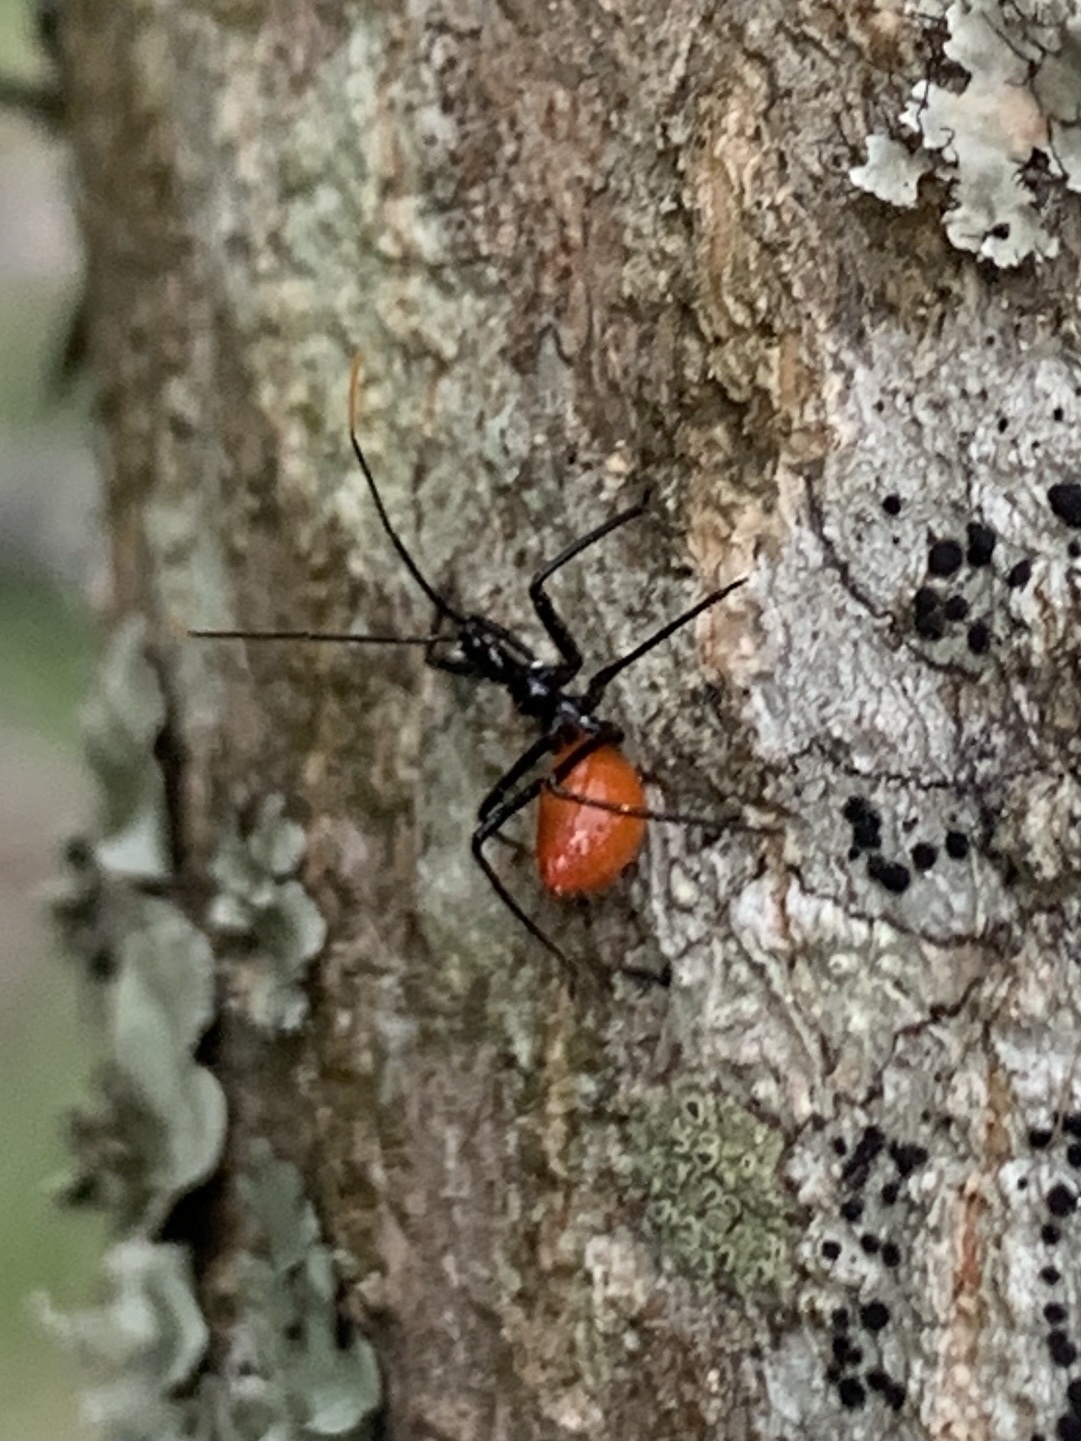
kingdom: Animalia
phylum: Arthropoda
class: Insecta
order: Hemiptera
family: Reduviidae
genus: Arilus
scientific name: Arilus cristatus
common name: North american wheel bug
